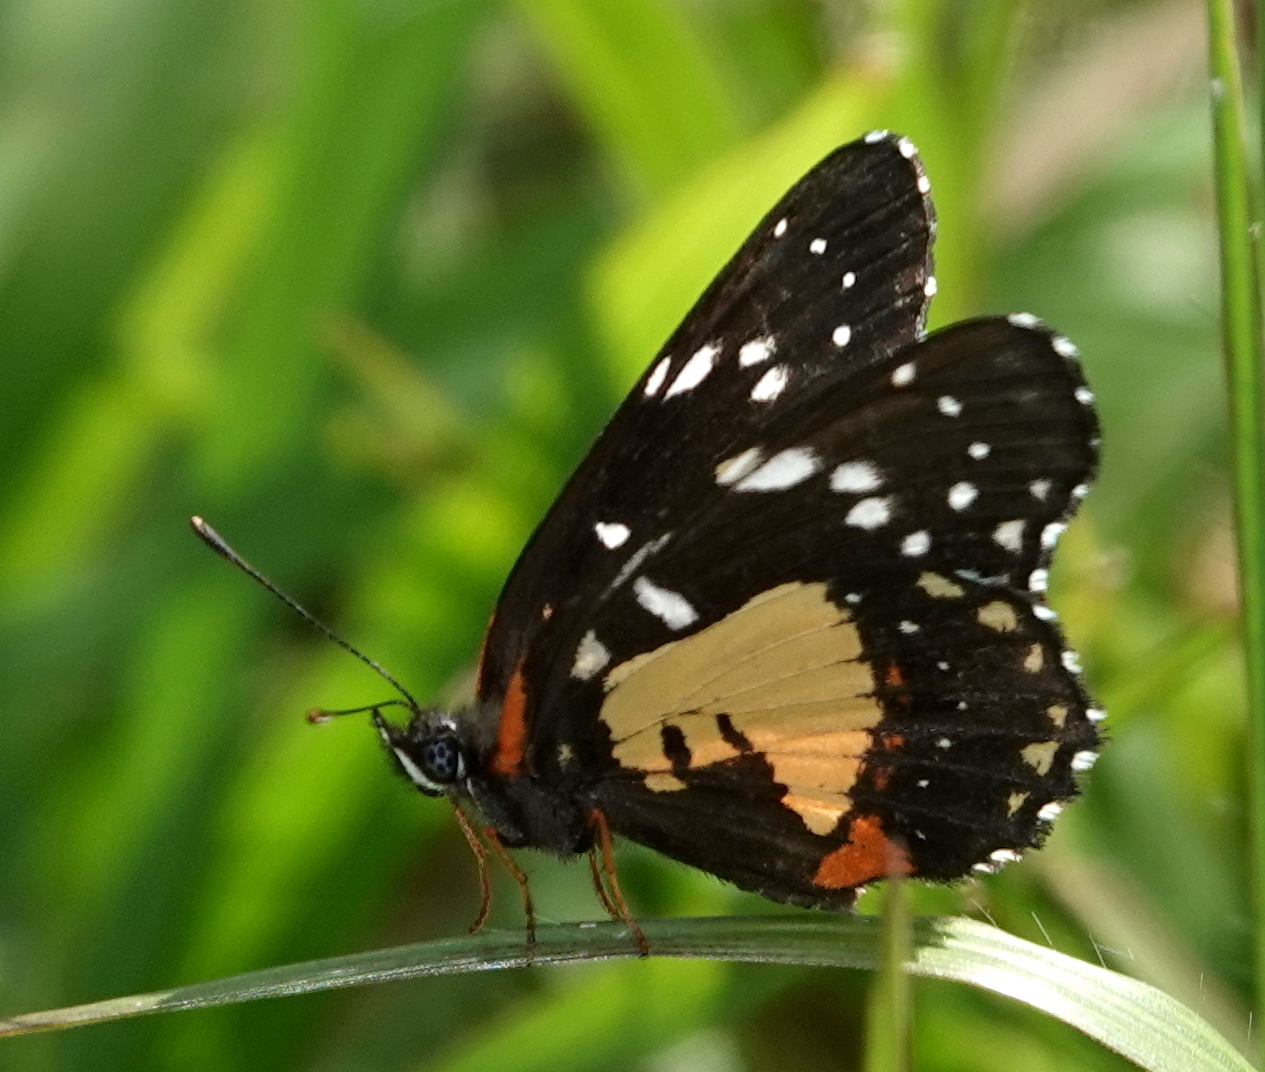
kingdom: Animalia
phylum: Arthropoda
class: Insecta
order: Lepidoptera
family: Nymphalidae
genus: Chlosyne
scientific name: Chlosyne lacinia
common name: Bordered patch
